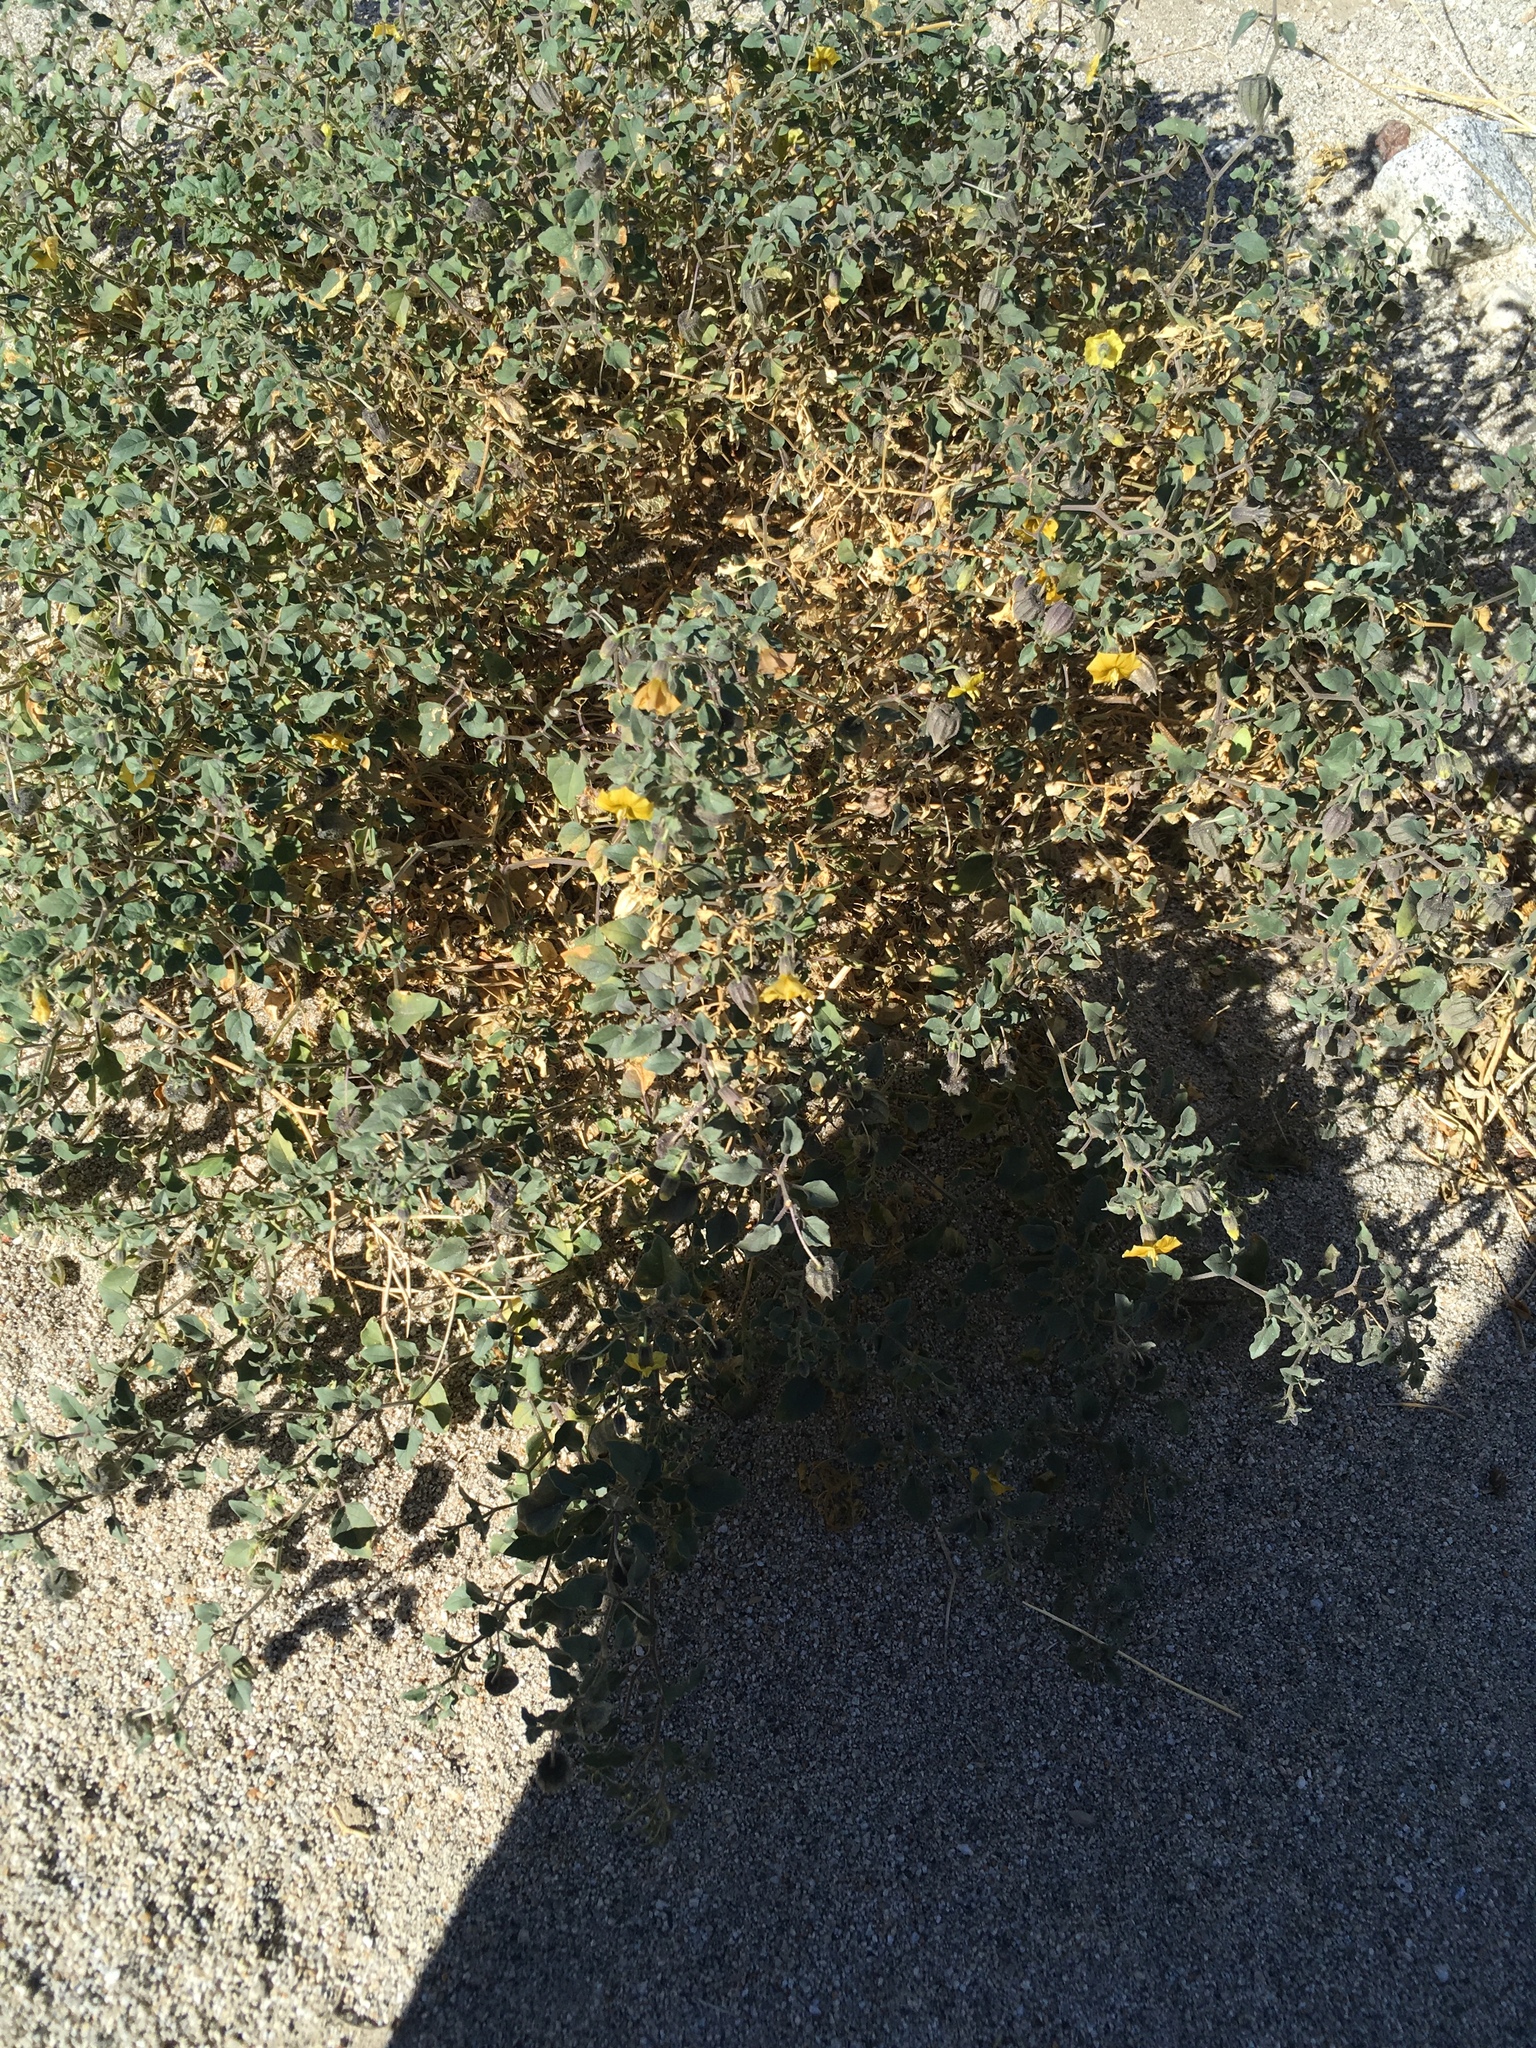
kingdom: Plantae
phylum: Tracheophyta
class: Magnoliopsida
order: Solanales
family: Solanaceae
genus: Physalis
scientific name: Physalis crassifolia
